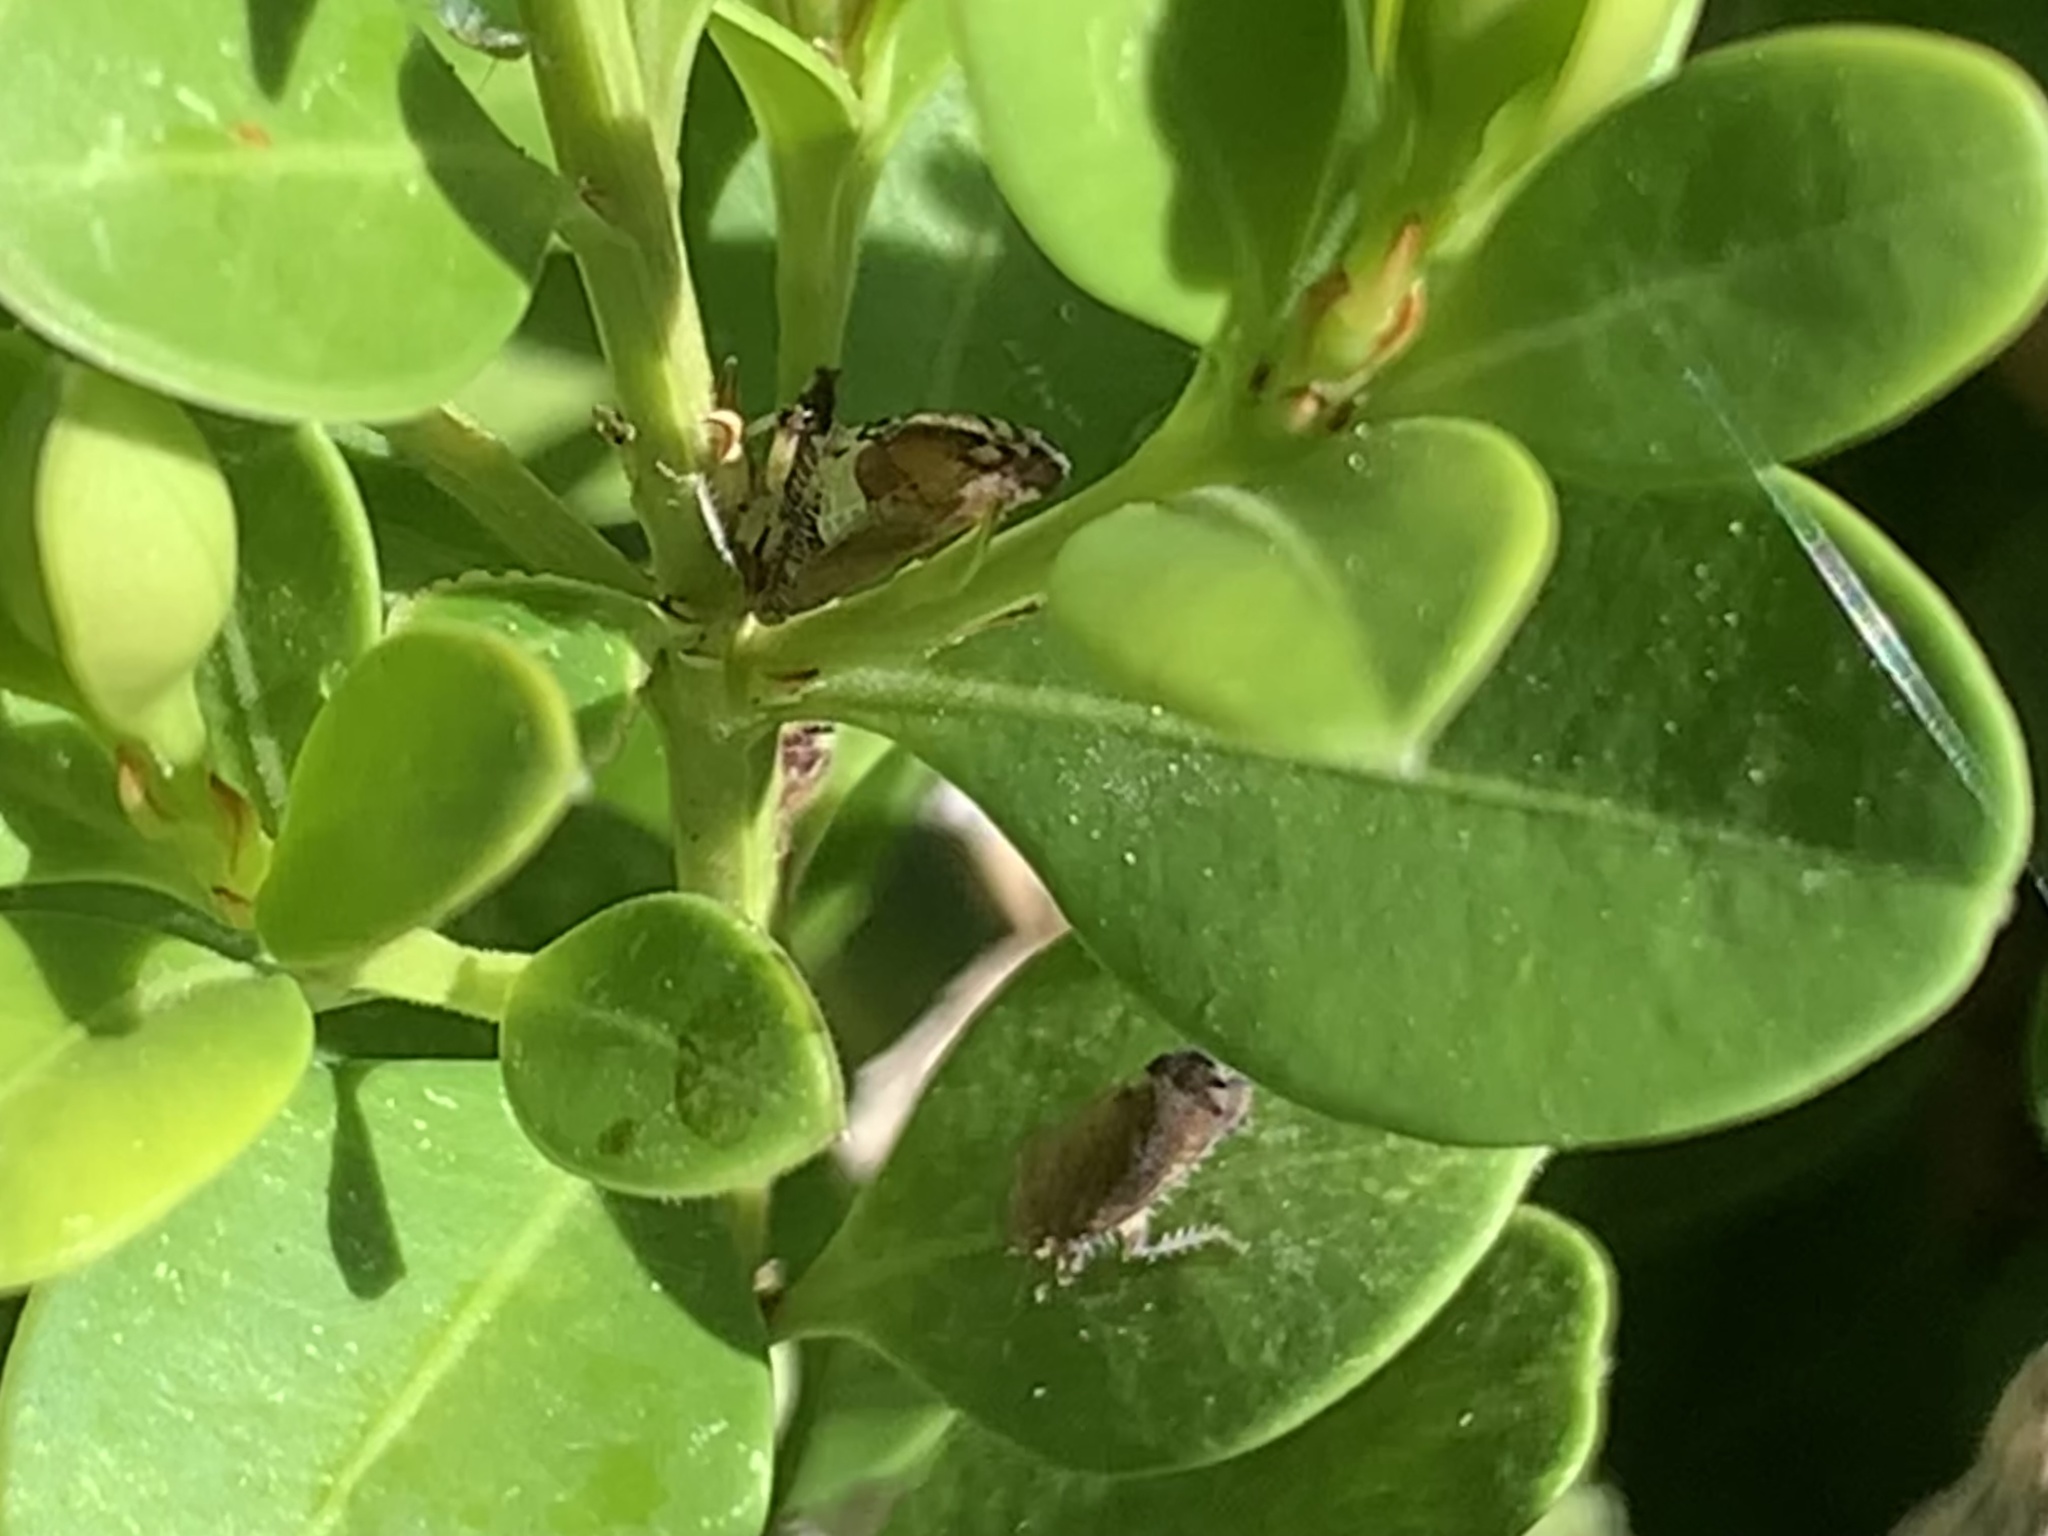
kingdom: Animalia
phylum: Arthropoda
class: Insecta
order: Hemiptera
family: Cicadellidae
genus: Fieberiella
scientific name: Fieberiella florii
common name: Flor’s leafhopper
